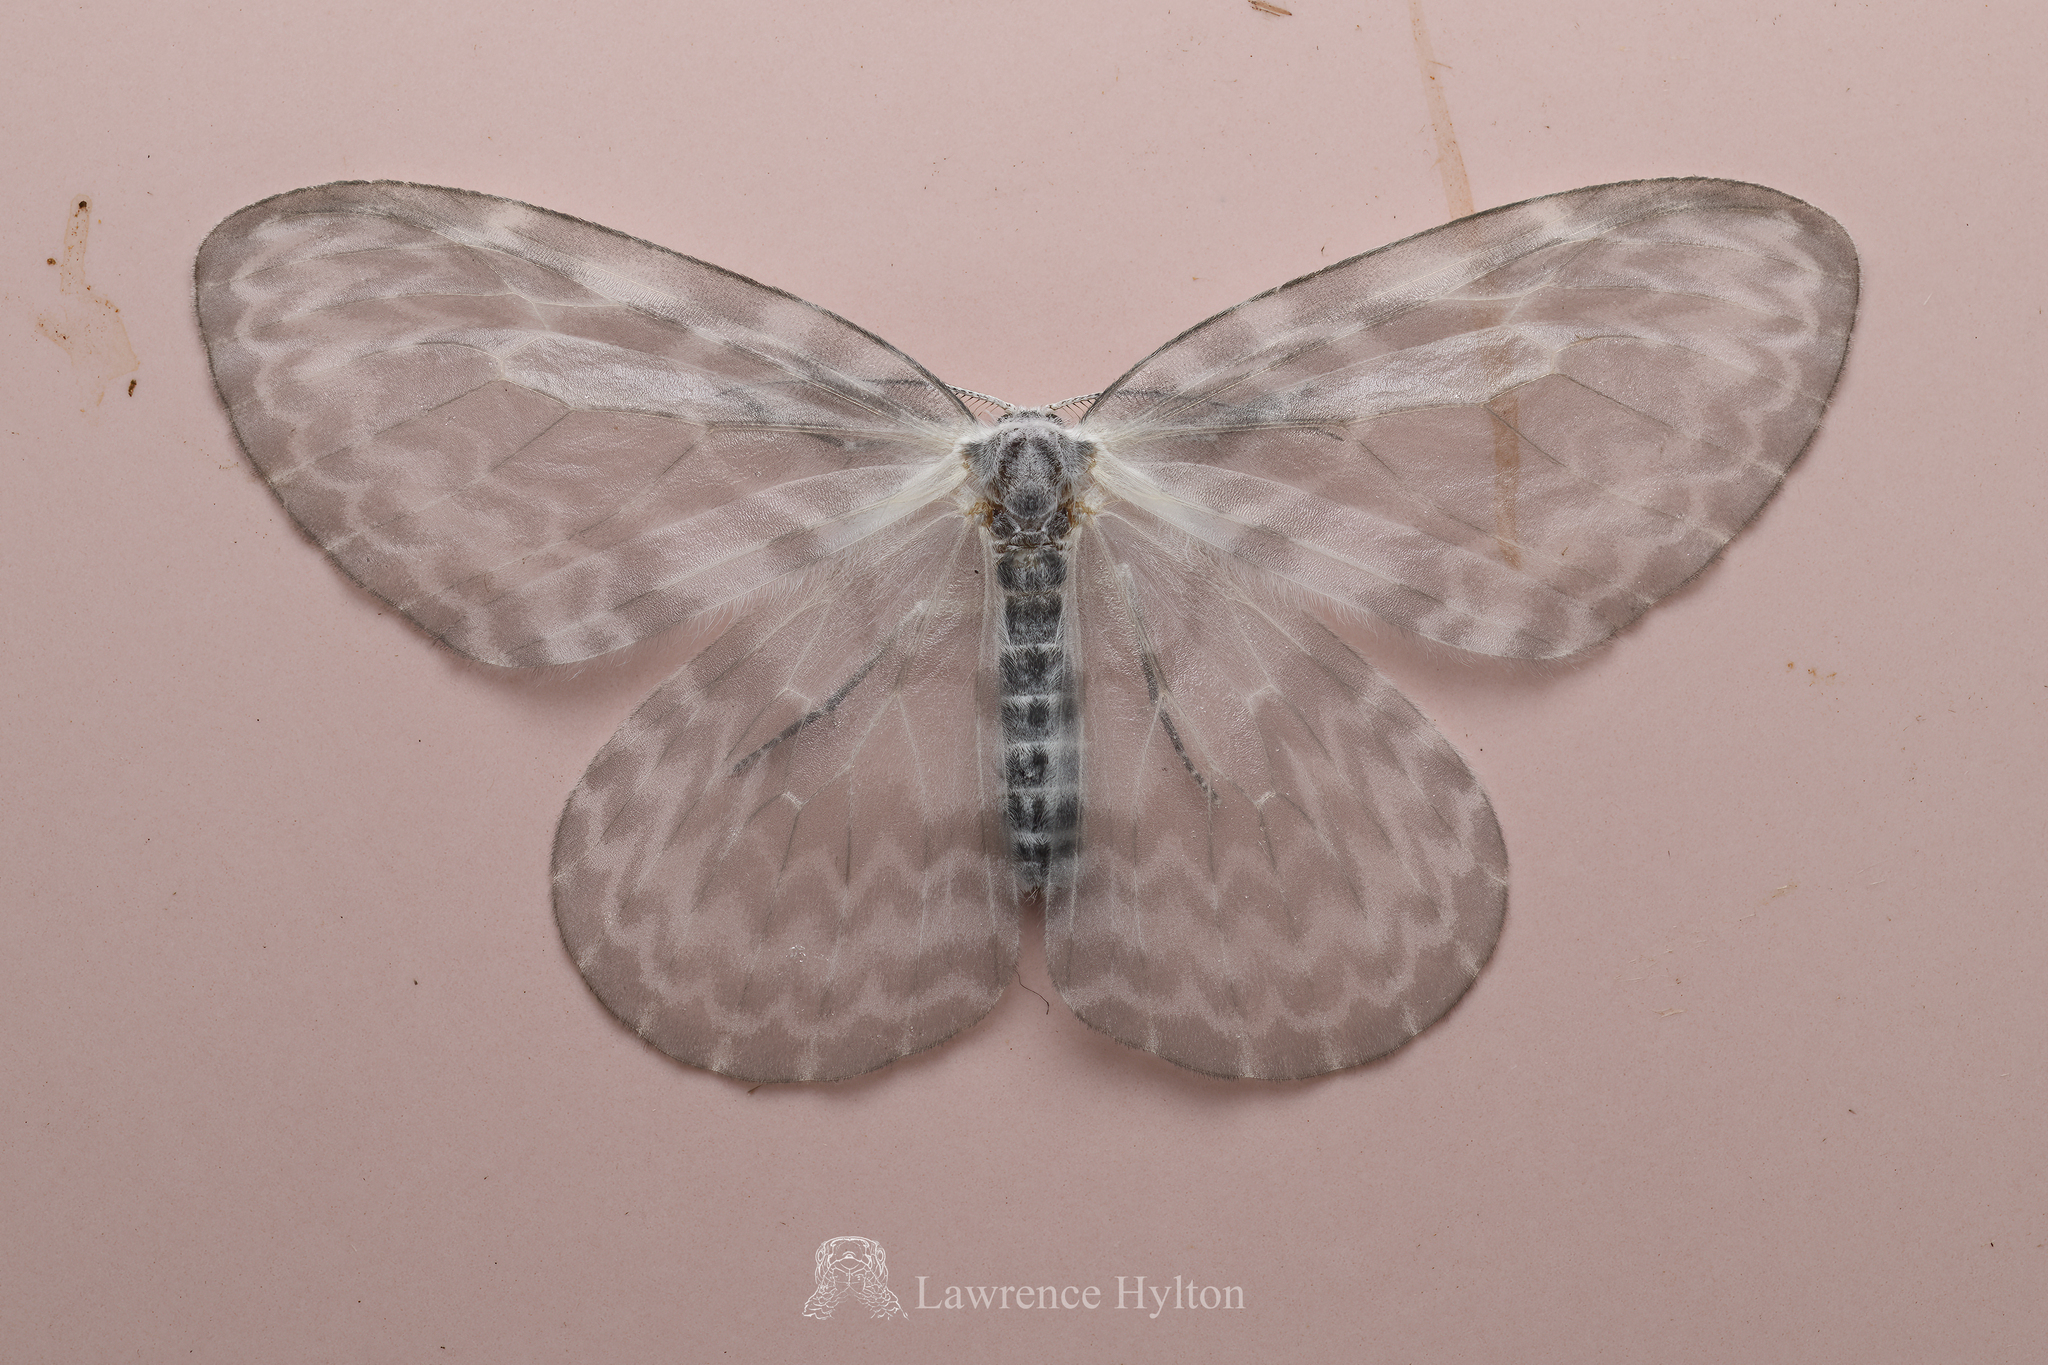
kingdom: Animalia
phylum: Arthropoda
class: Insecta
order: Lepidoptera
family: Drepanidae
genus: Deroca
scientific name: Deroca hyalina
